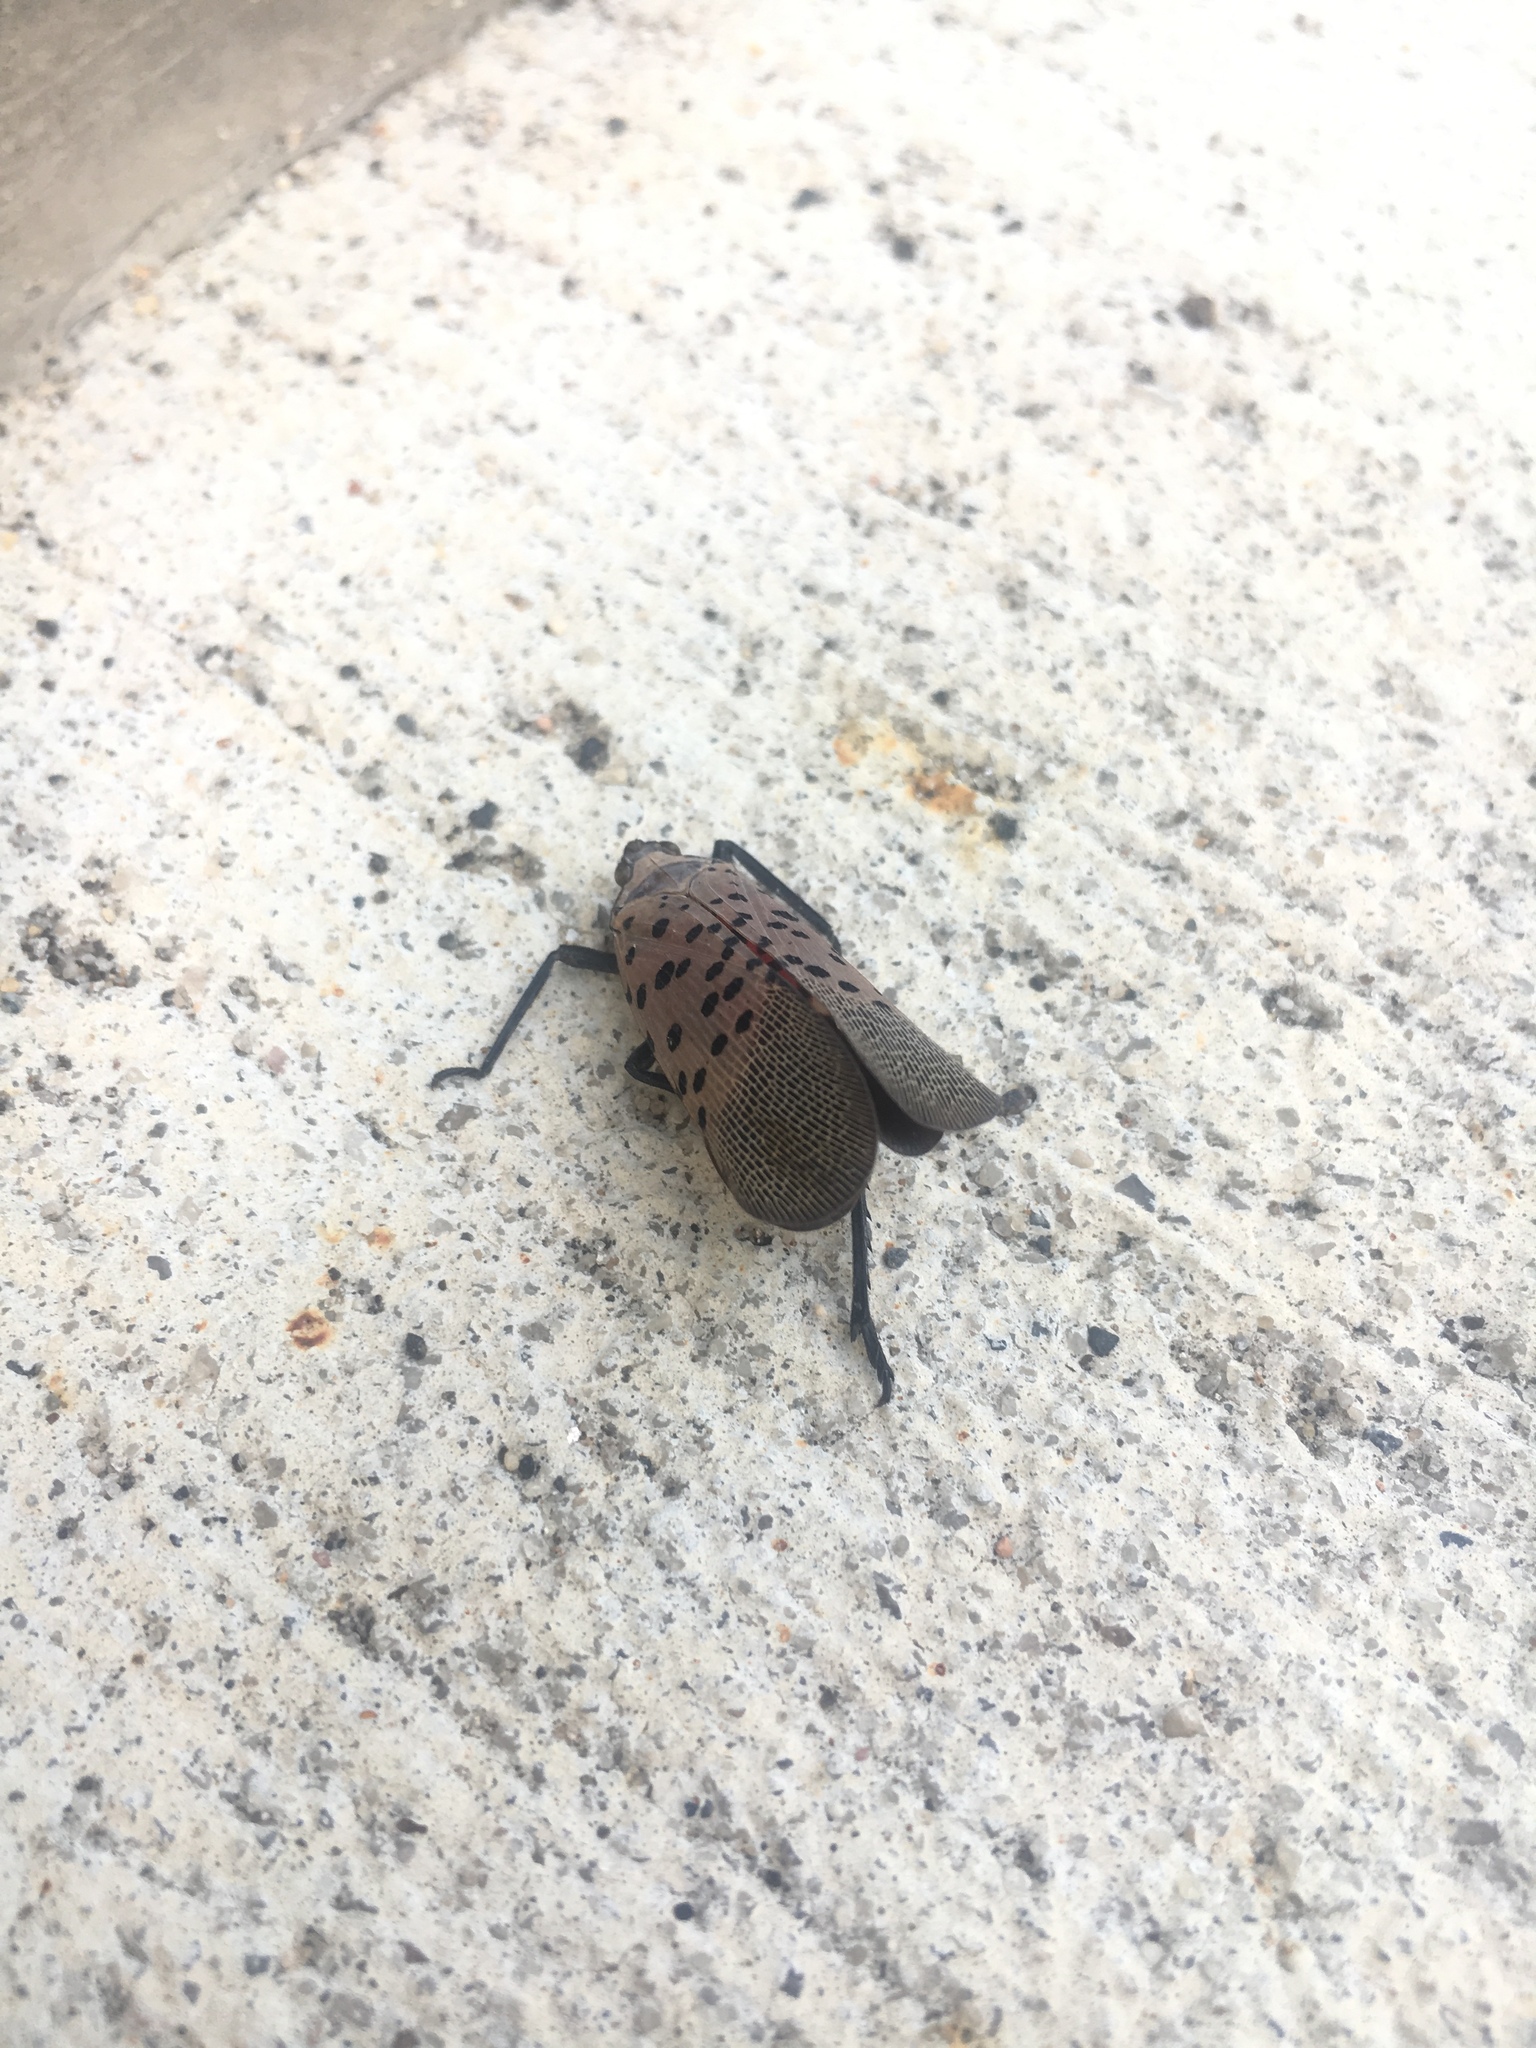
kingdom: Animalia
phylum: Arthropoda
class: Insecta
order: Hemiptera
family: Fulgoridae
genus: Lycorma
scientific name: Lycorma delicatula
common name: Spotted lanternfly
